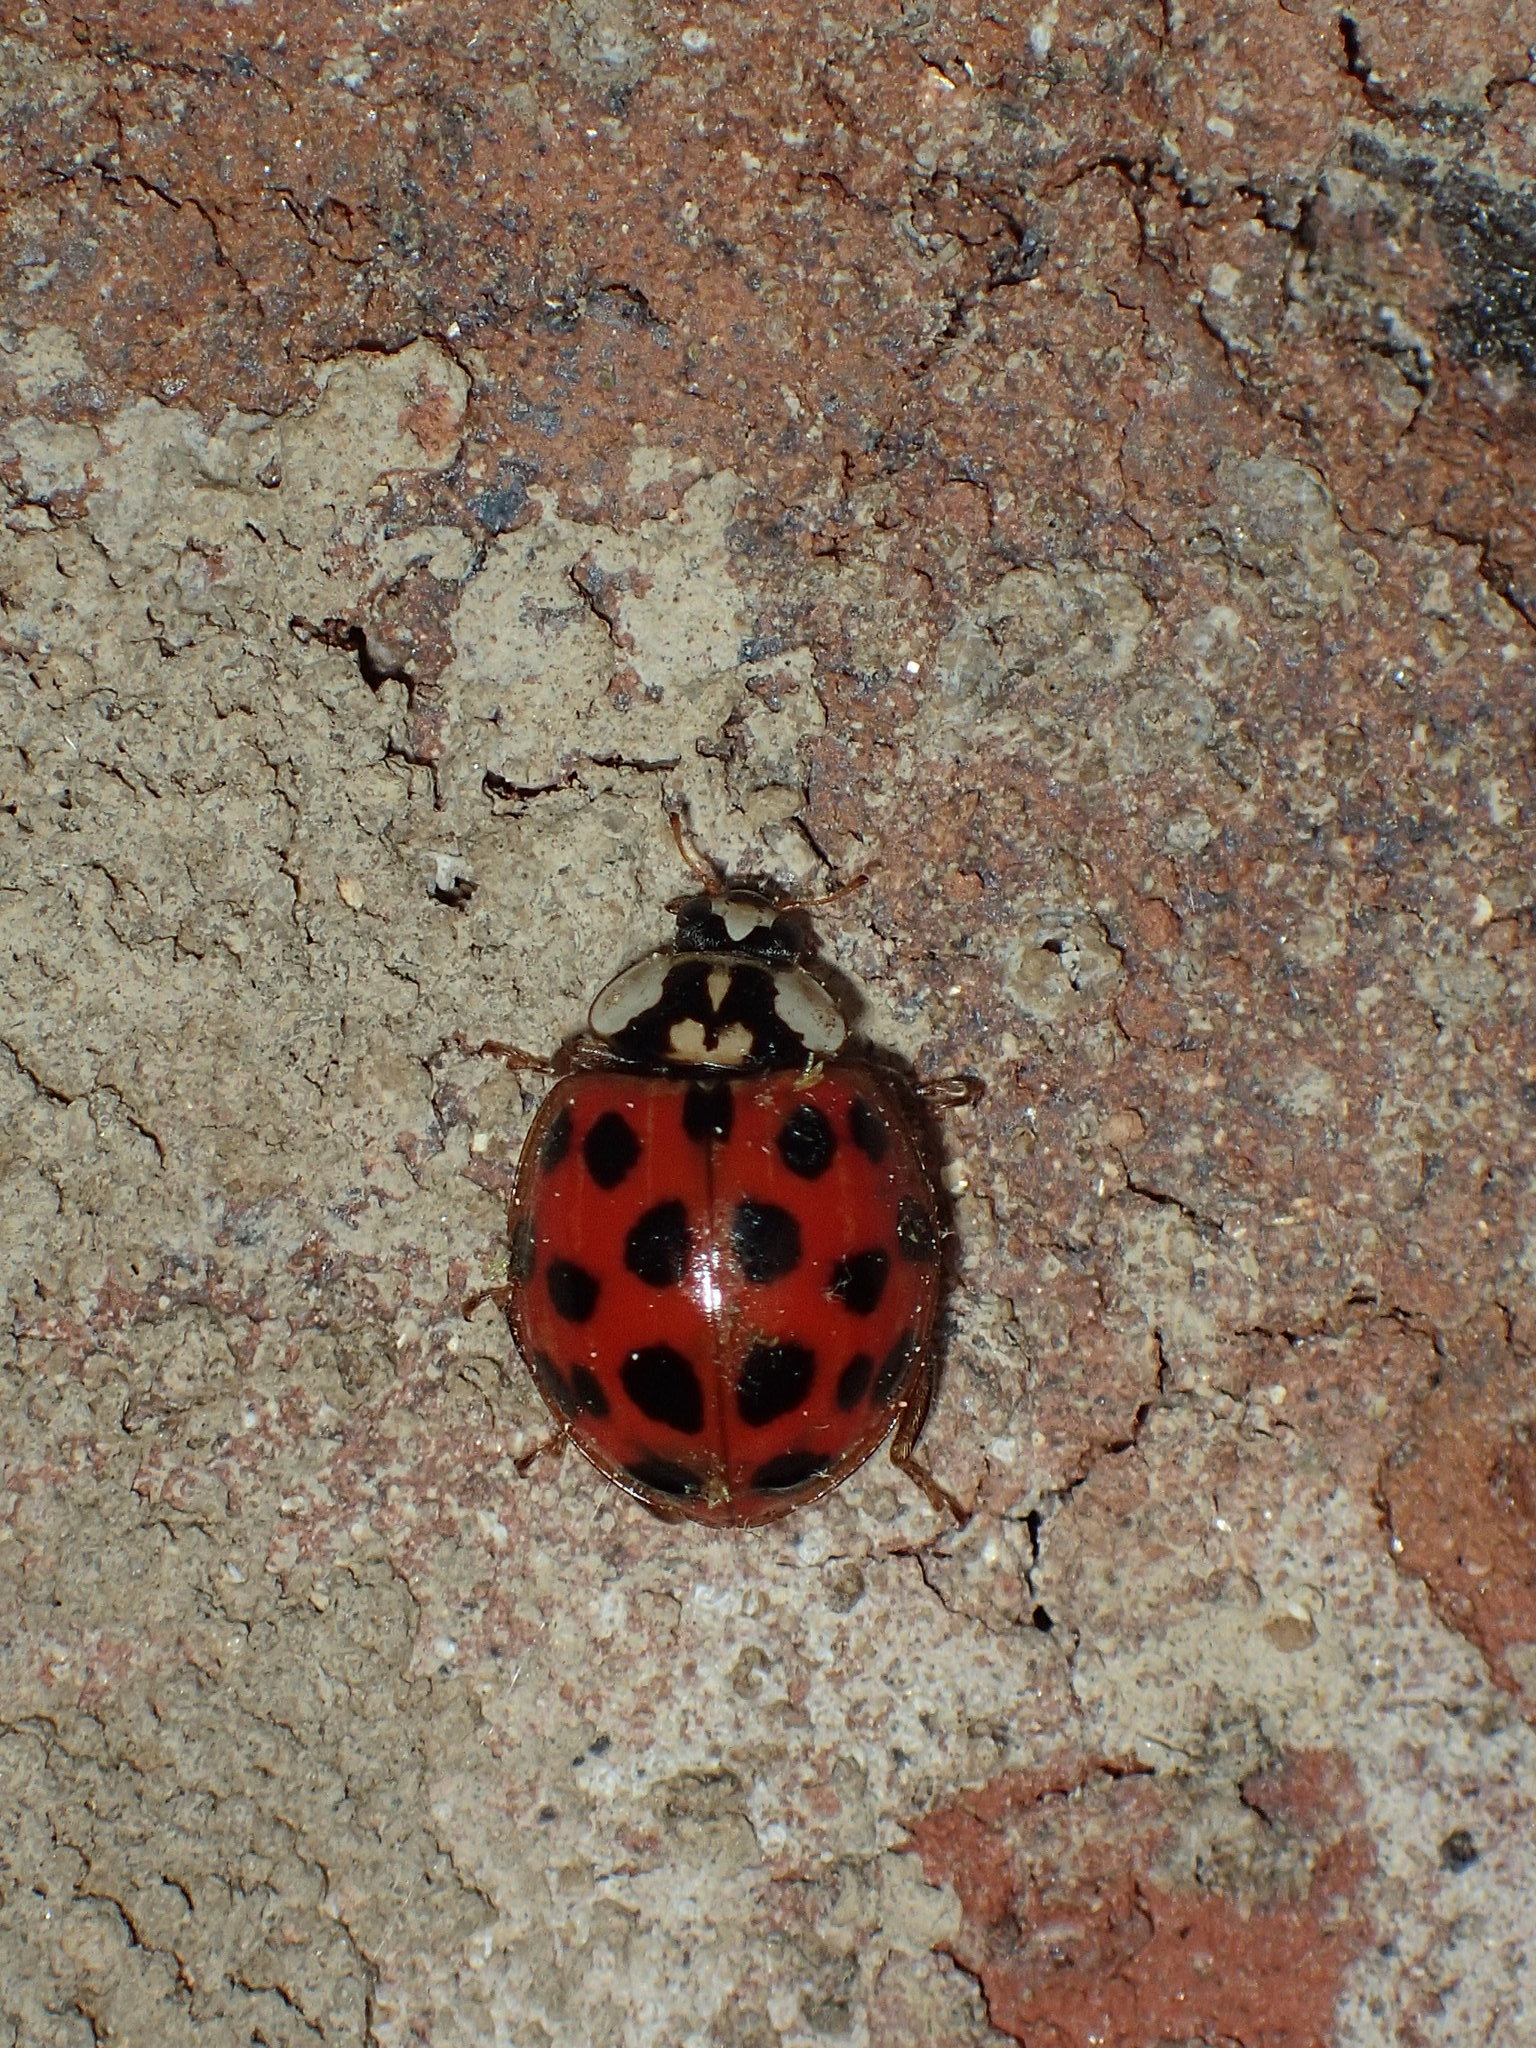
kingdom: Animalia
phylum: Arthropoda
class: Insecta
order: Coleoptera
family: Coccinellidae
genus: Harmonia
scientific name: Harmonia axyridis
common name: Harlequin ladybird
